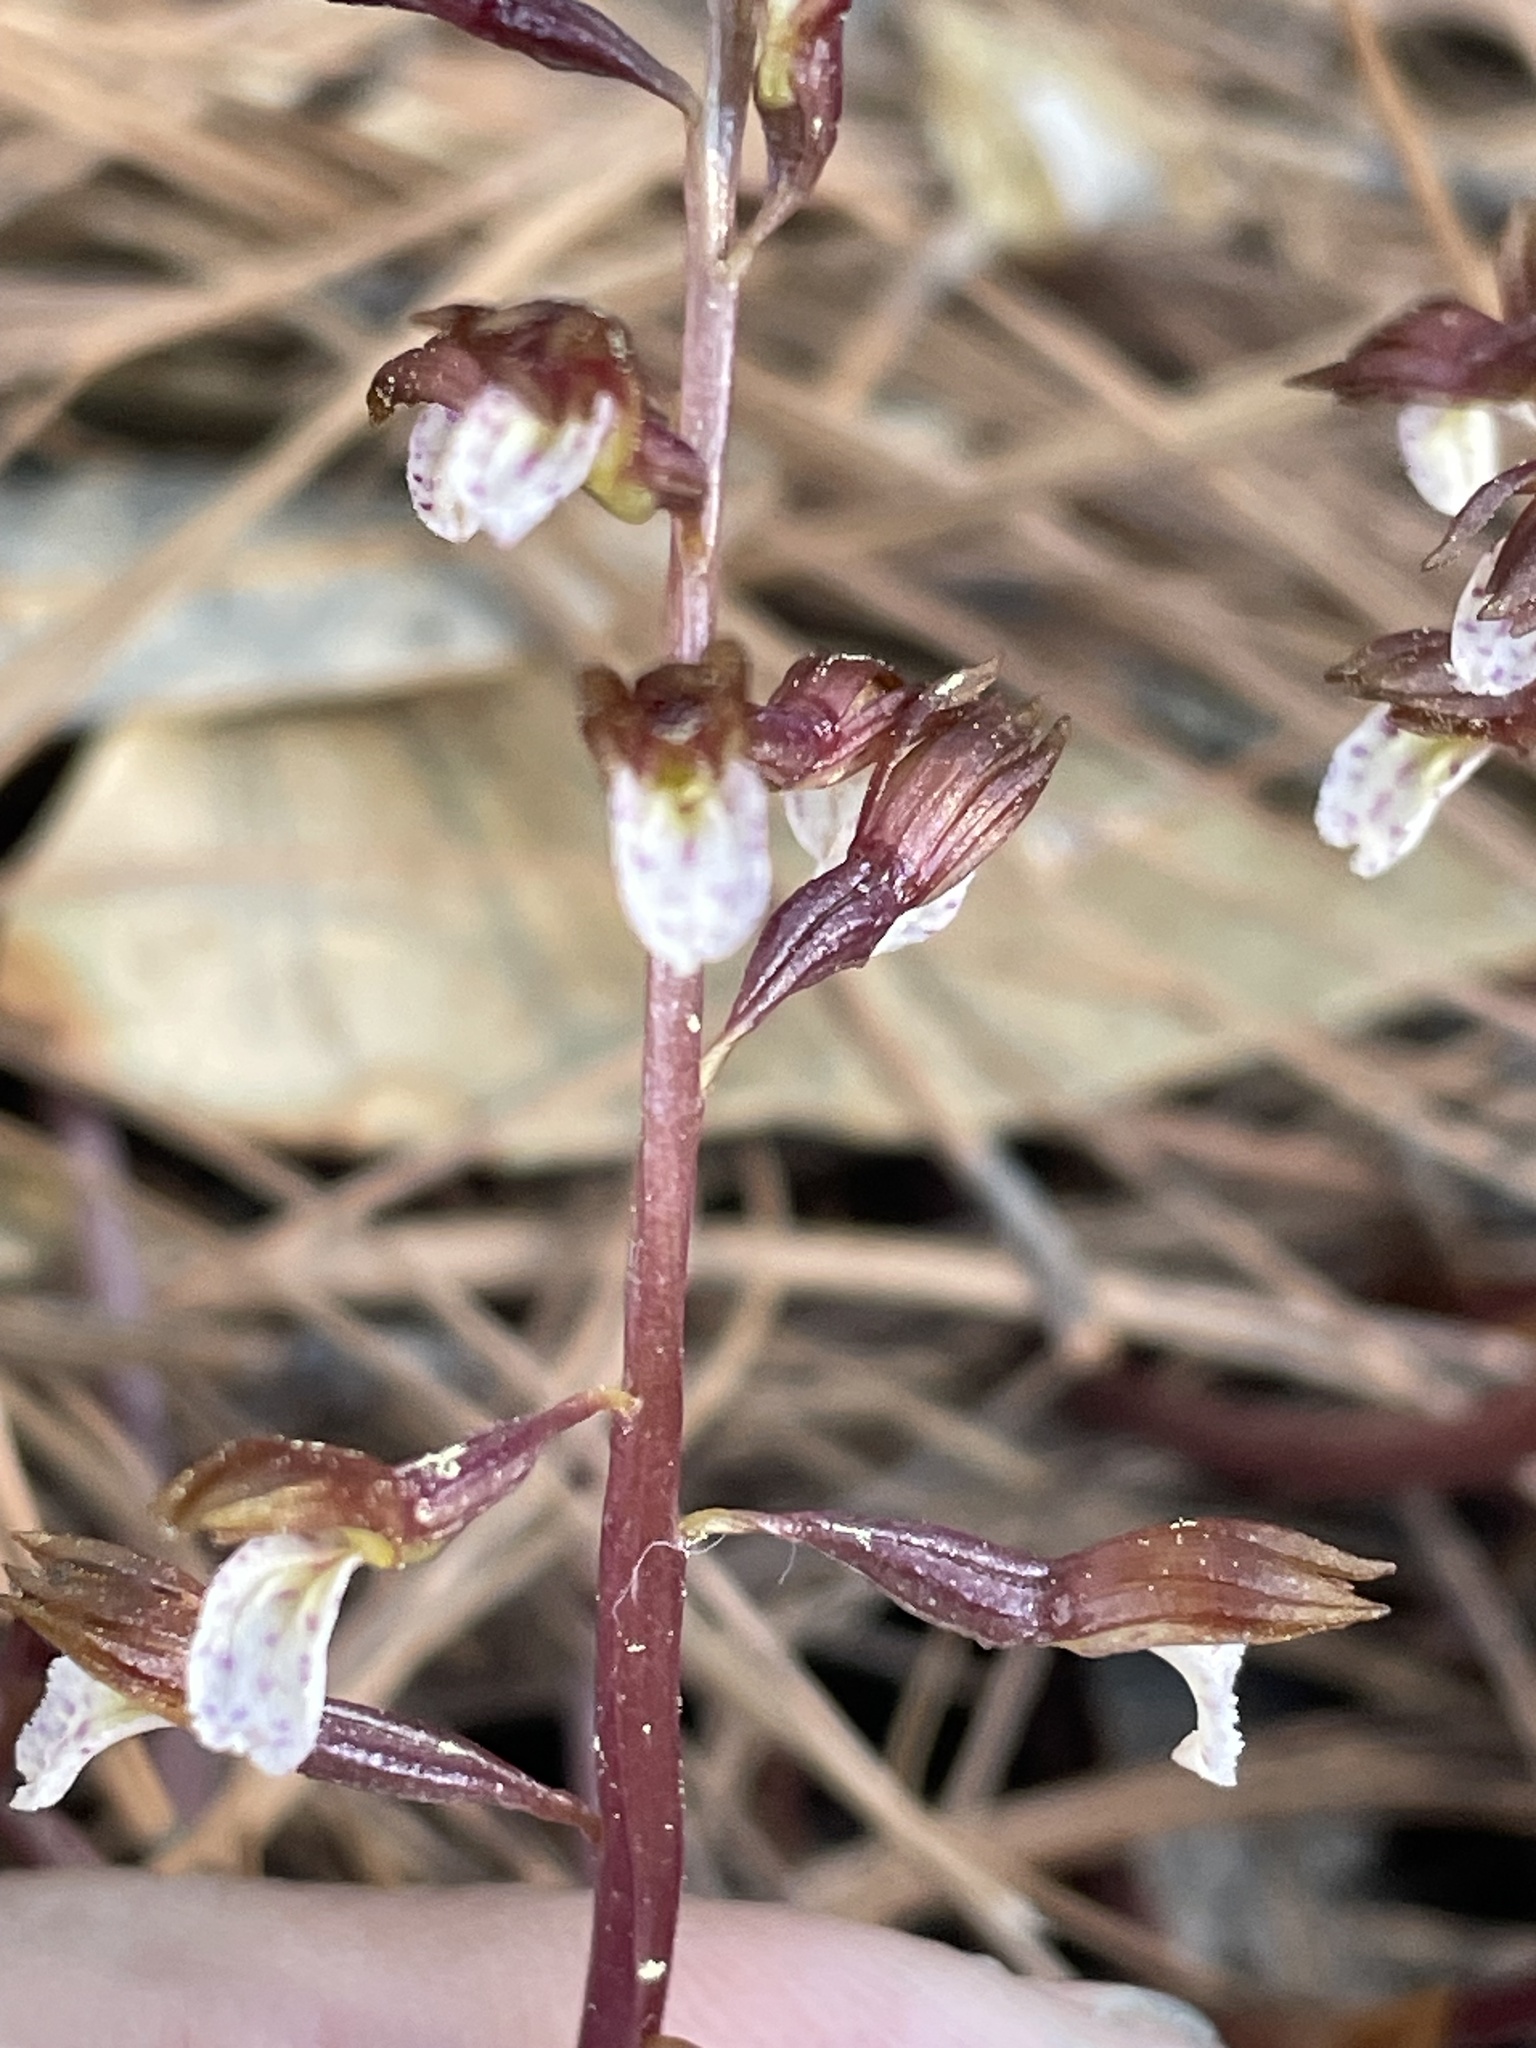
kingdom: Plantae
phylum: Tracheophyta
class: Liliopsida
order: Asparagales
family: Orchidaceae
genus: Corallorhiza
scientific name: Corallorhiza wisteriana
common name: Spring coralroot
